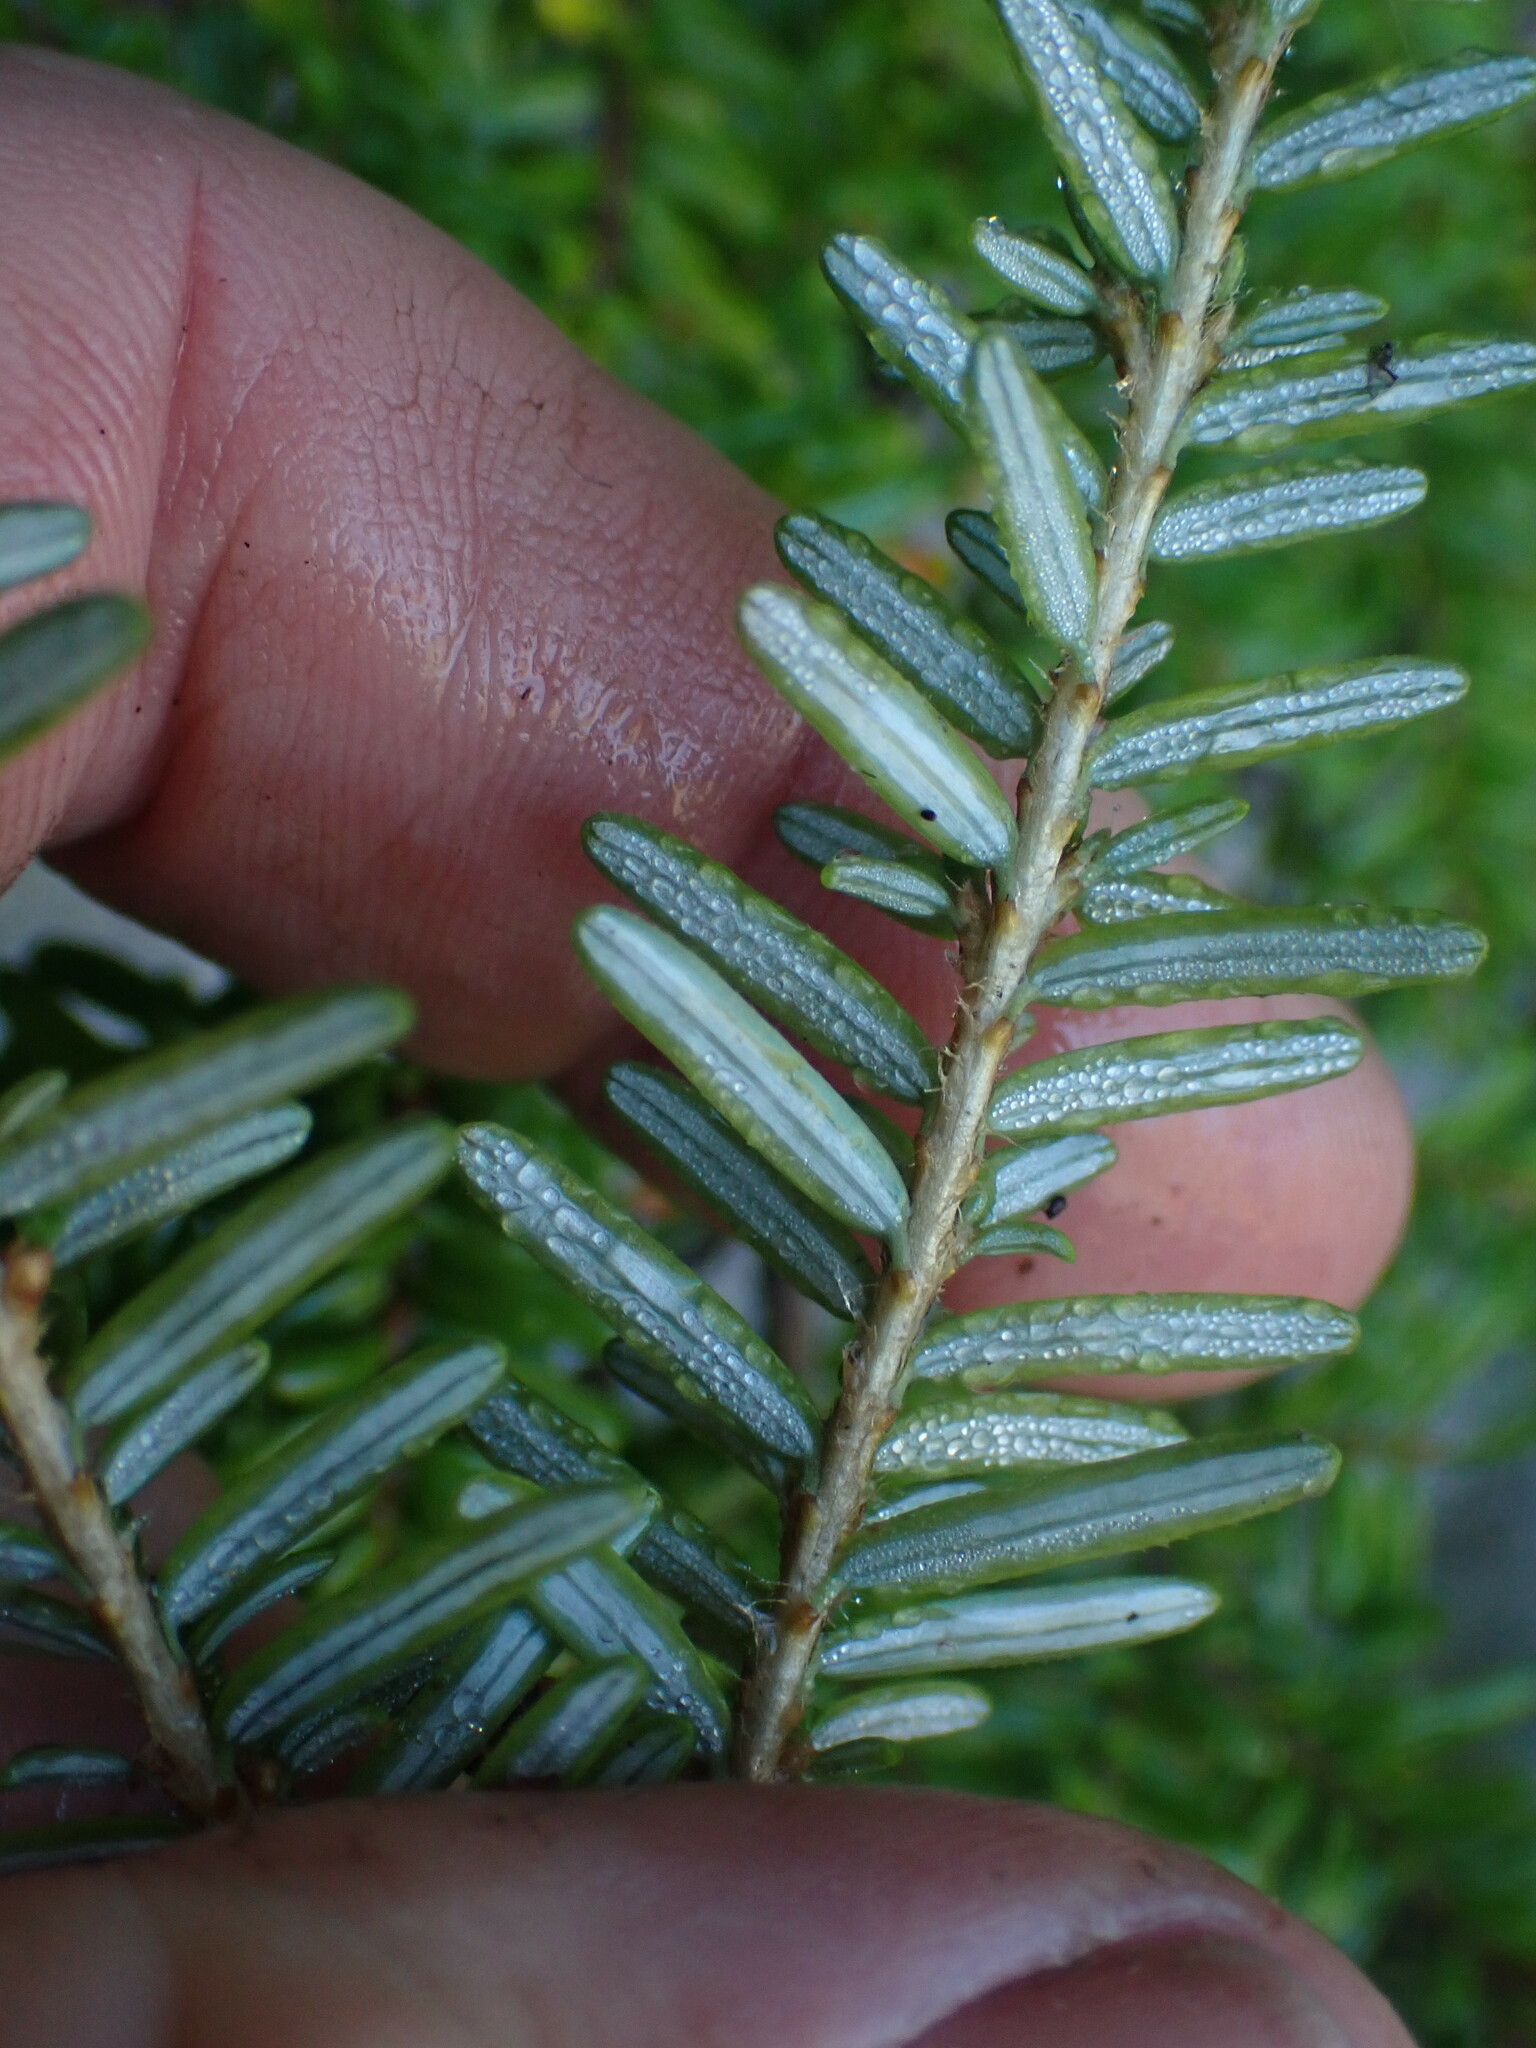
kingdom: Plantae
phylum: Tracheophyta
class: Pinopsida
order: Pinales
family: Pinaceae
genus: Tsuga
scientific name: Tsuga heterophylla
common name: Western hemlock
